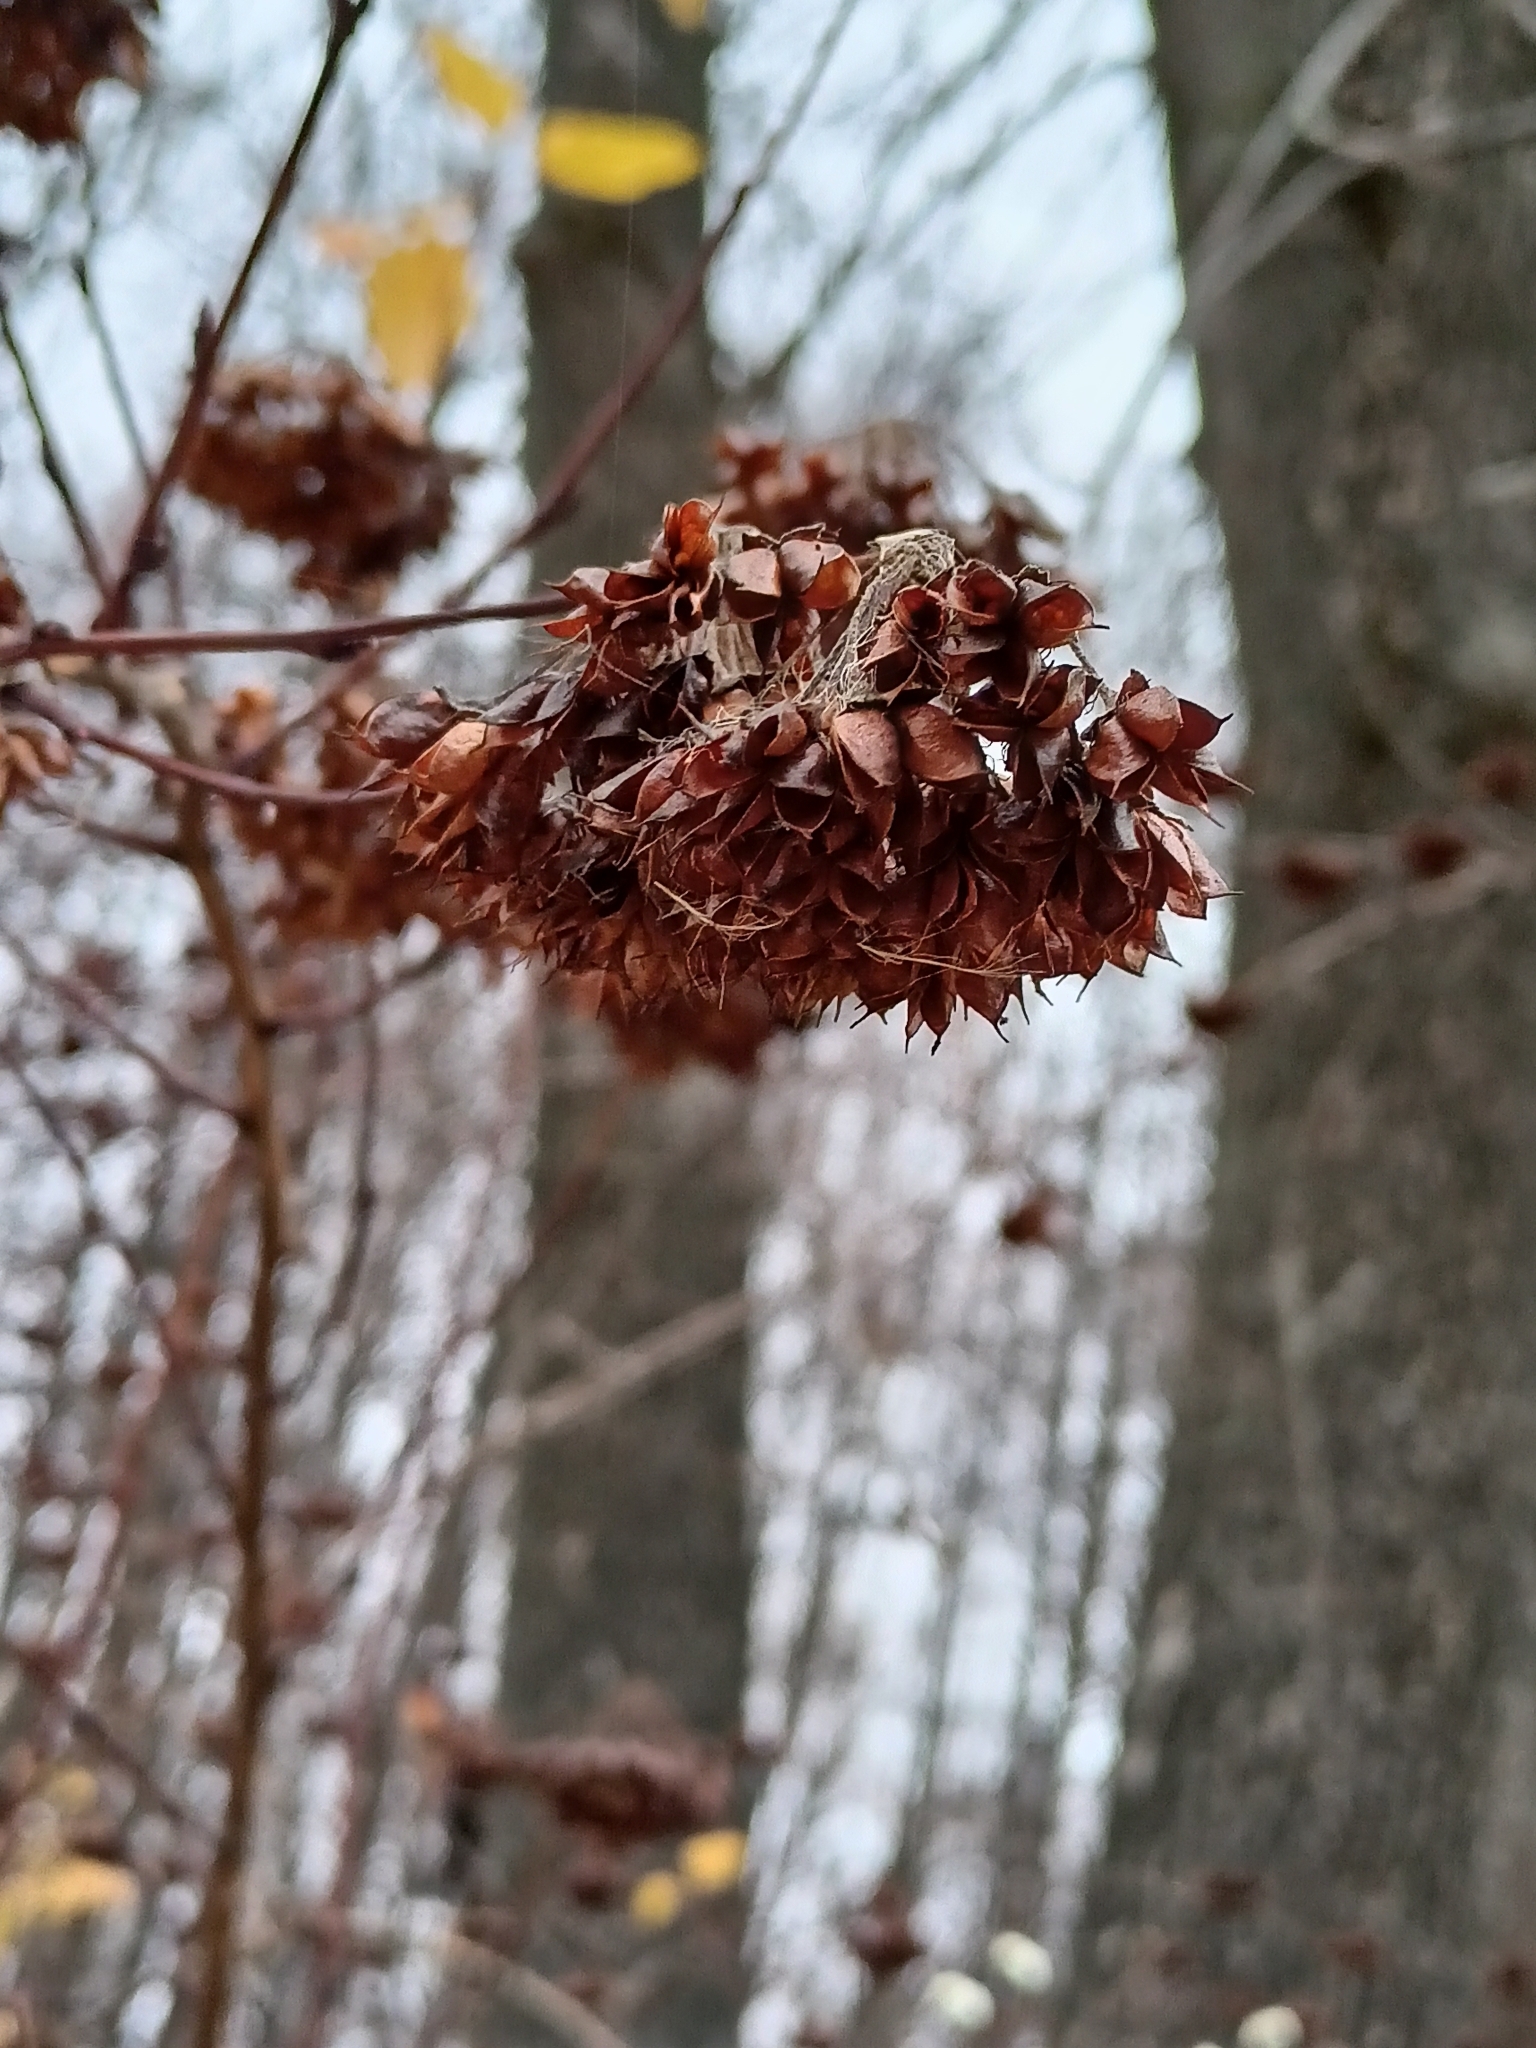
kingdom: Plantae
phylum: Tracheophyta
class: Magnoliopsida
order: Rosales
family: Rosaceae
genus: Physocarpus
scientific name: Physocarpus opulifolius
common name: Ninebark
